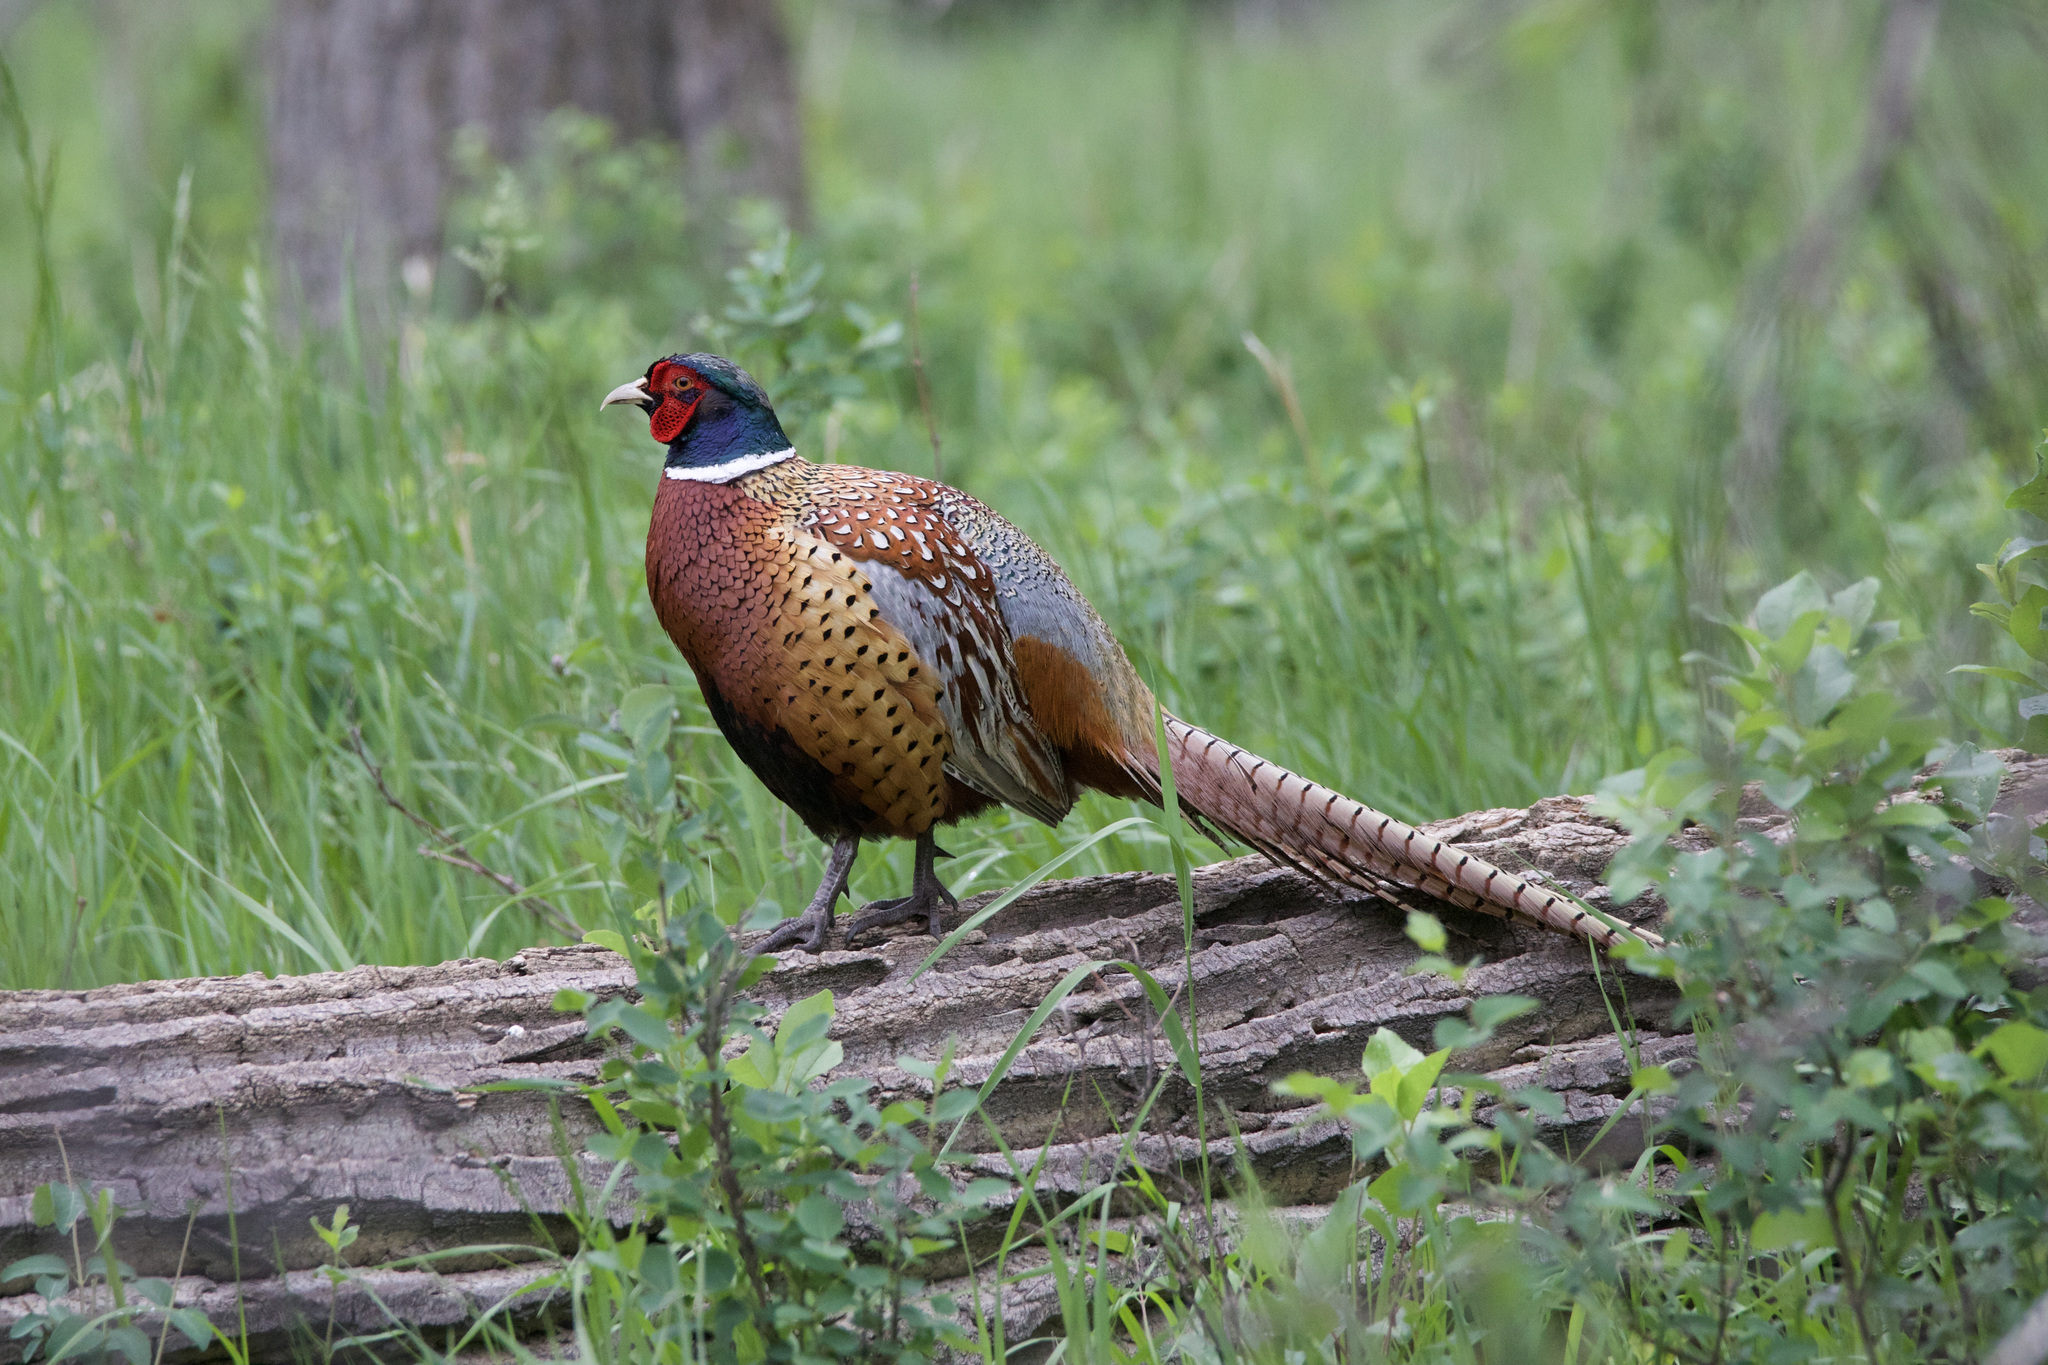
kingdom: Animalia
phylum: Chordata
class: Aves
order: Galliformes
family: Phasianidae
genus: Phasianus
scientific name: Phasianus colchicus
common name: Common pheasant
